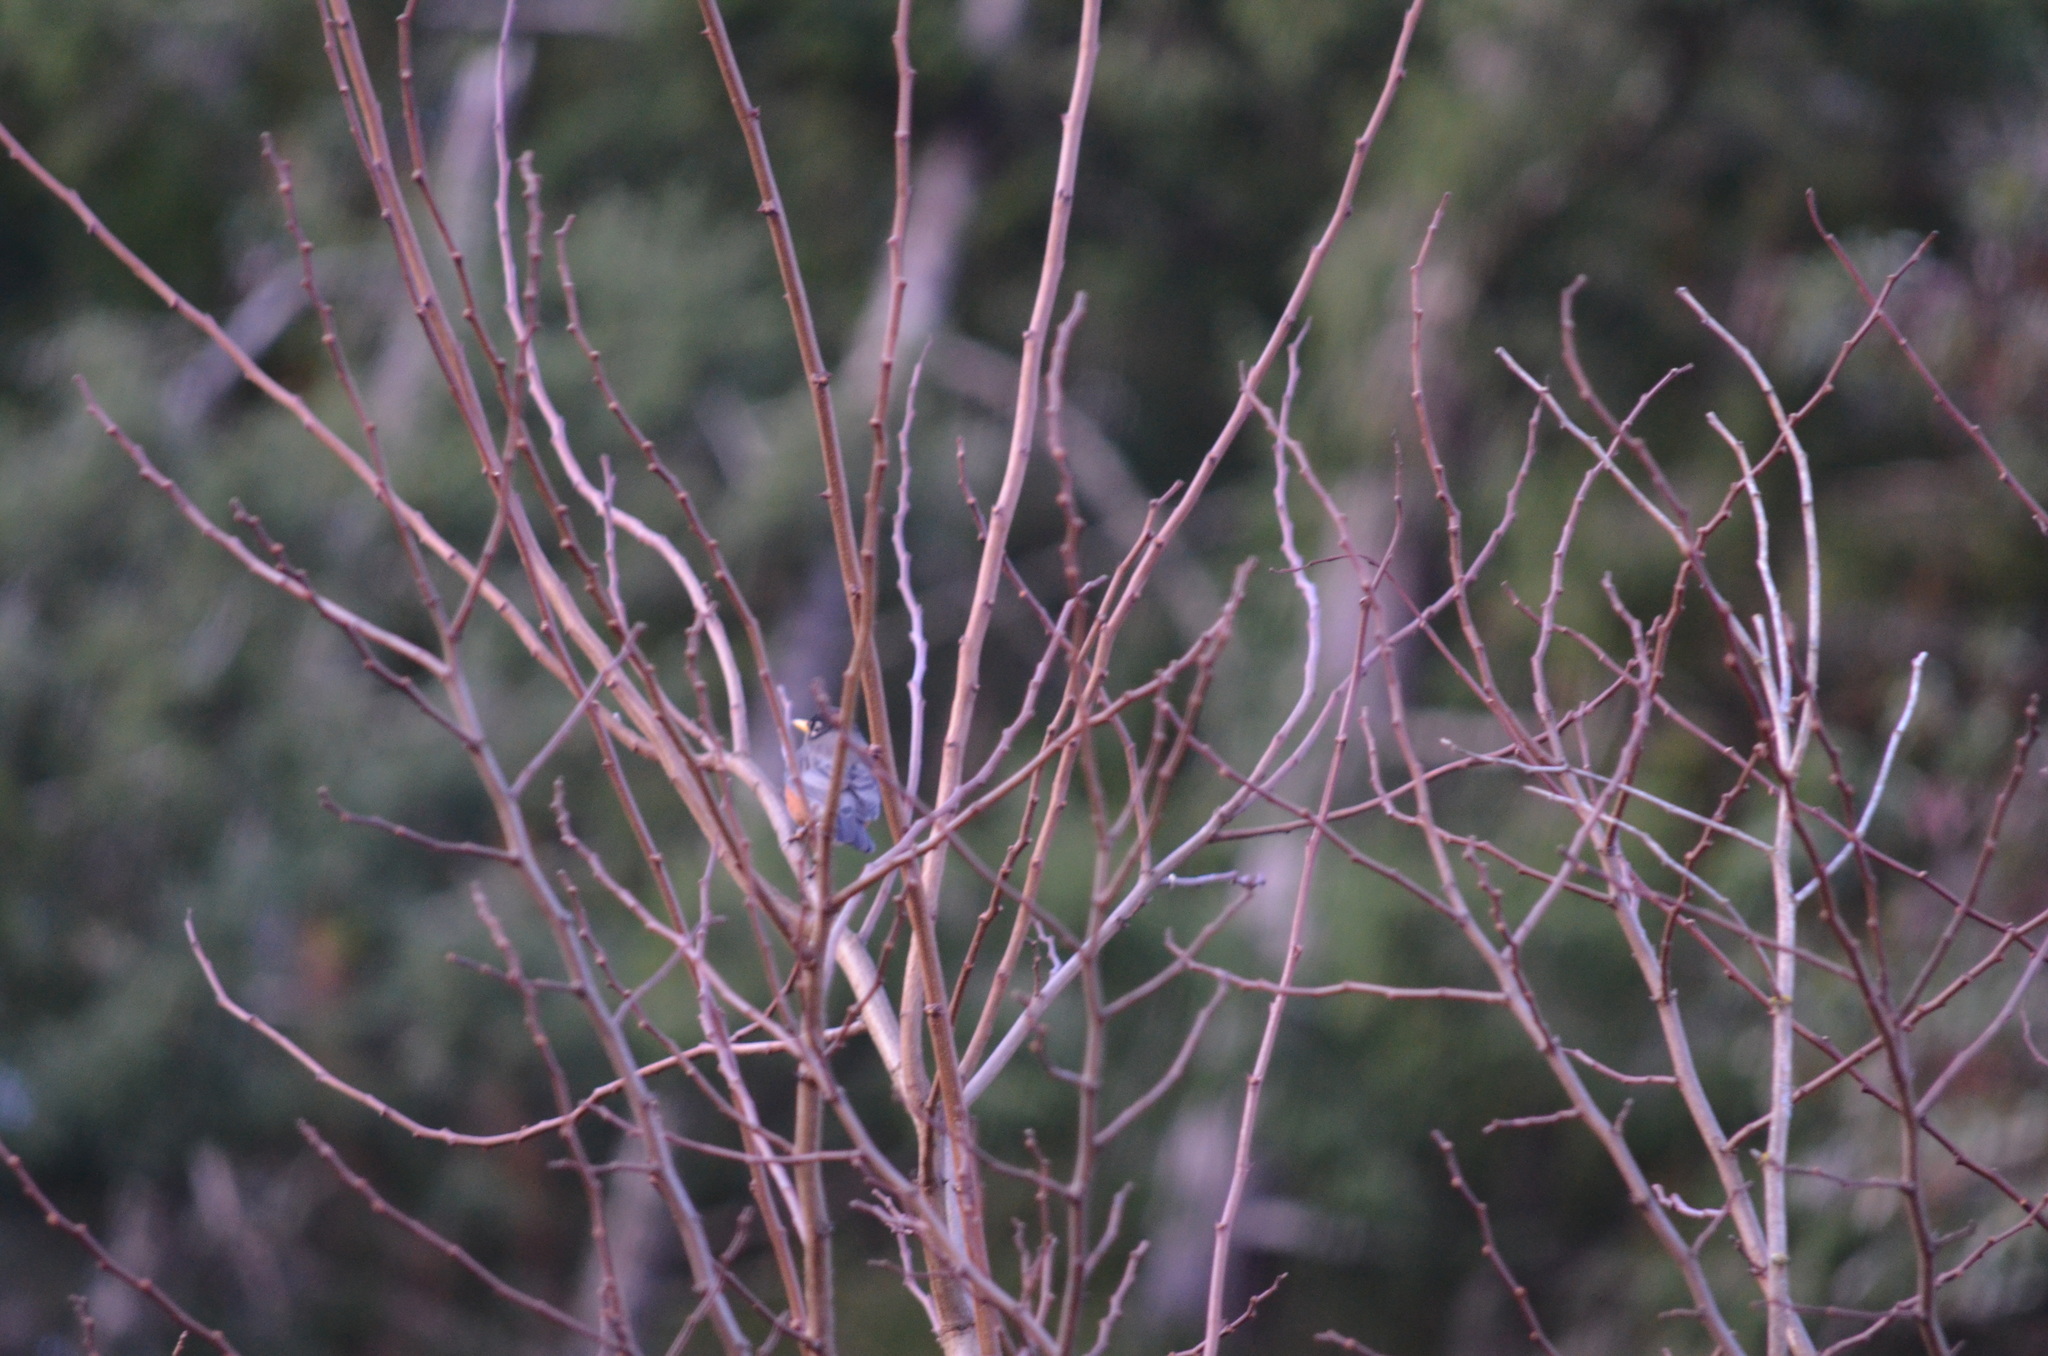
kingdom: Animalia
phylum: Chordata
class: Aves
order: Passeriformes
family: Turdidae
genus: Turdus
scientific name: Turdus migratorius
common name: American robin
